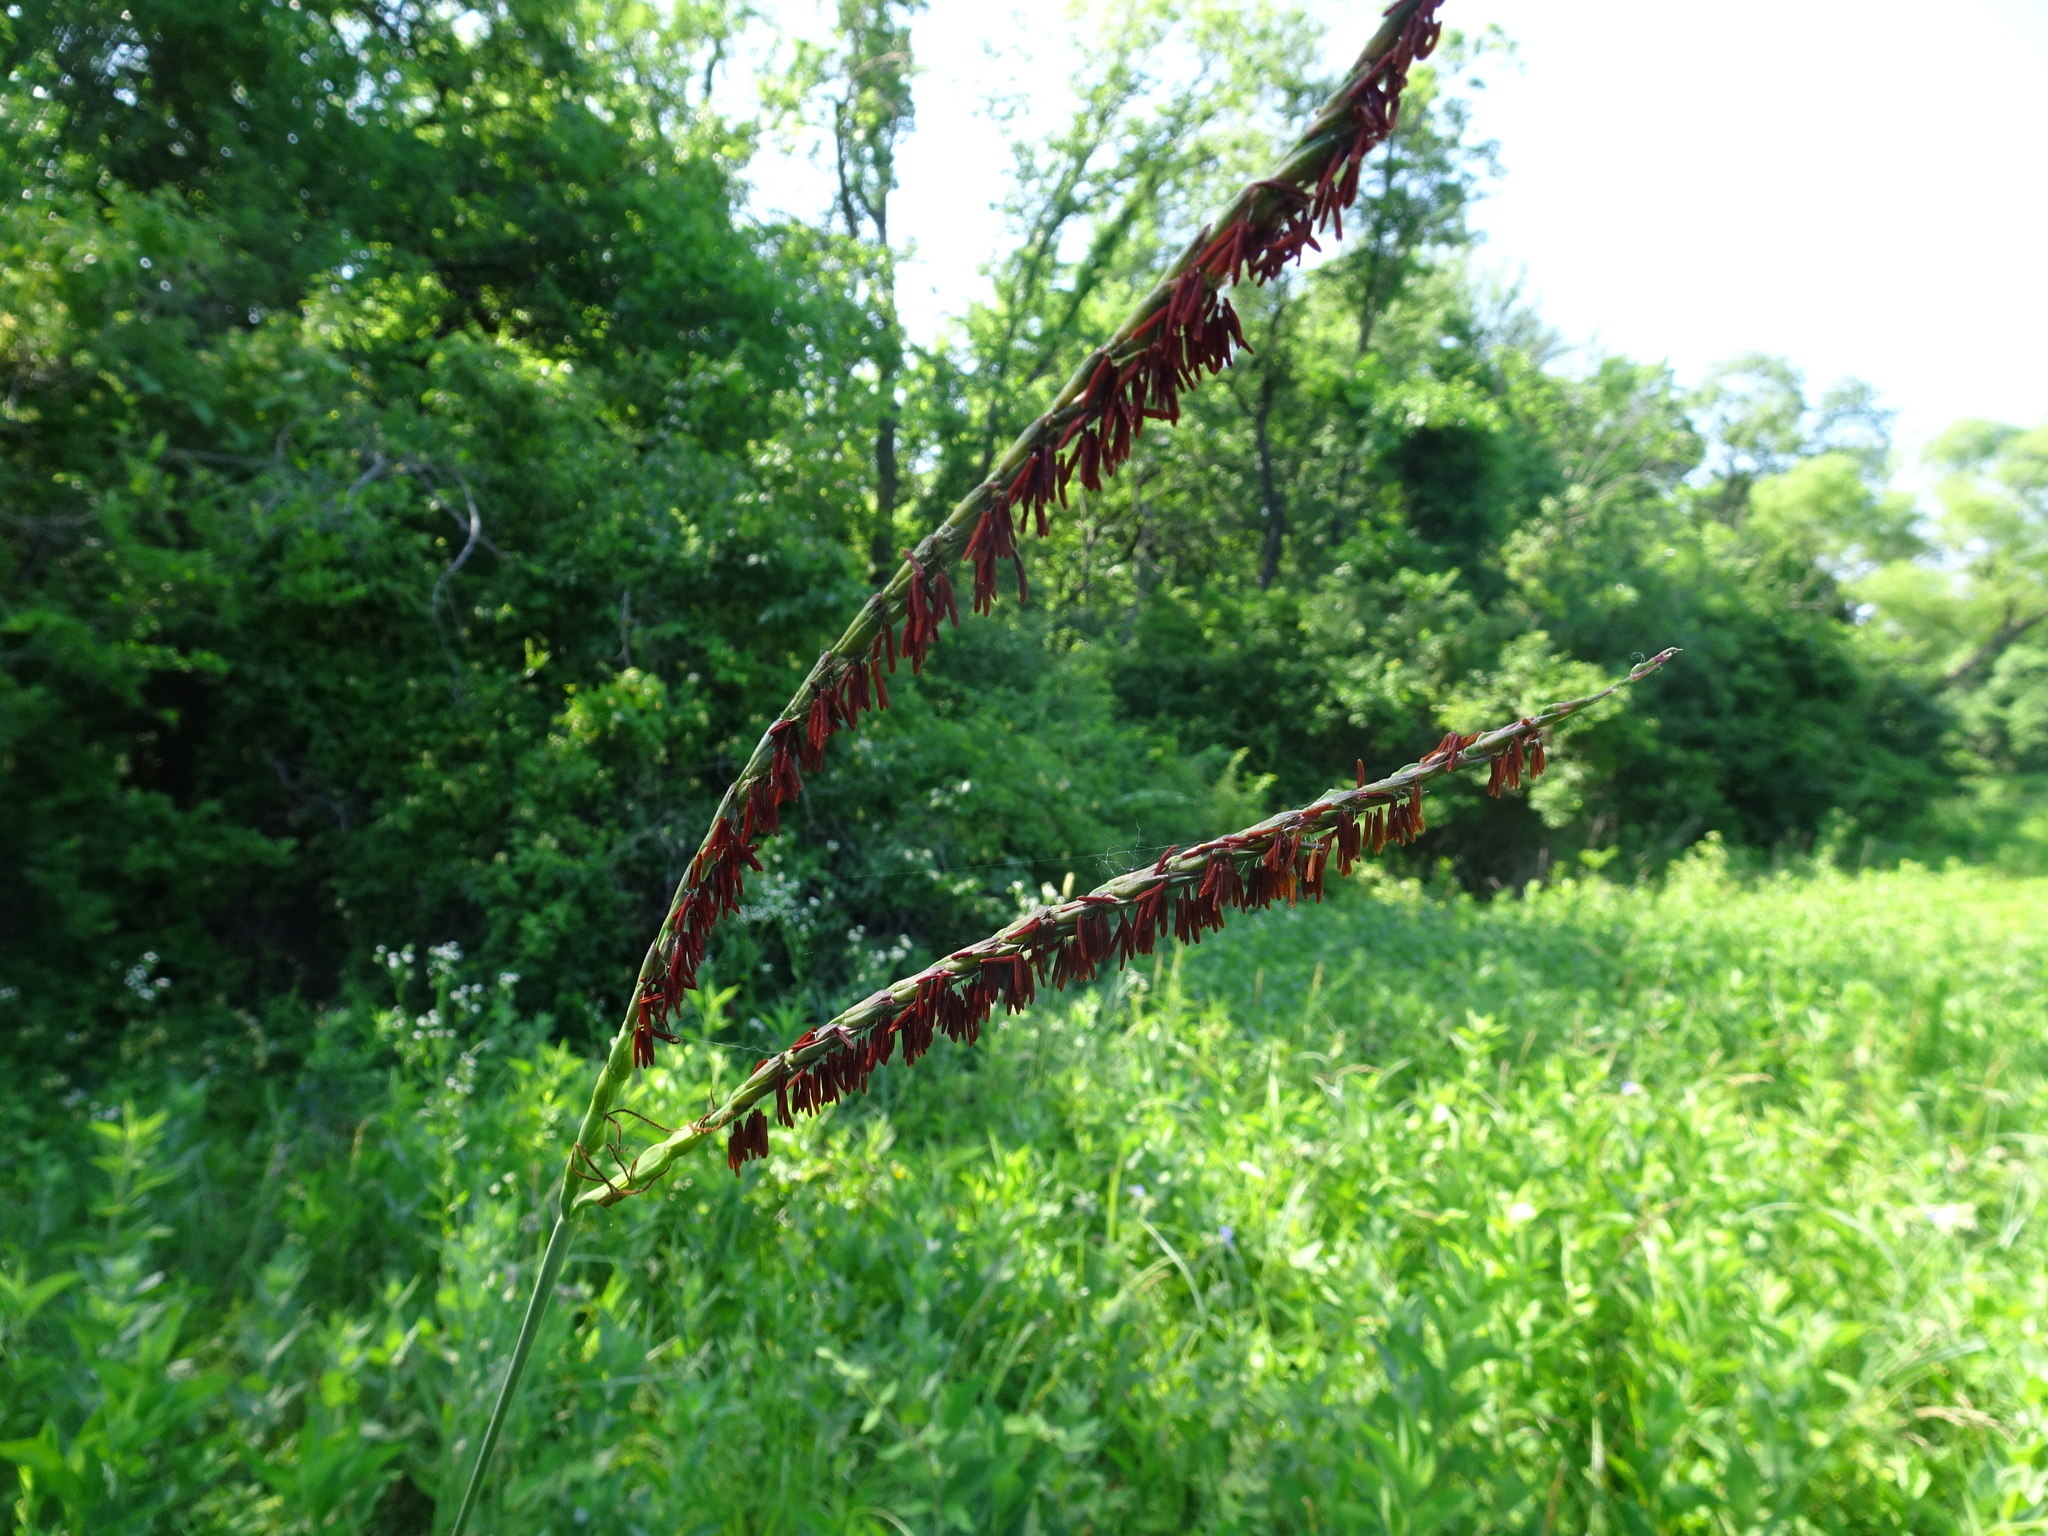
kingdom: Plantae
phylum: Tracheophyta
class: Liliopsida
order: Poales
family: Poaceae
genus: Tripsacum
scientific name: Tripsacum dactyloides
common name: Buffalo-grass
